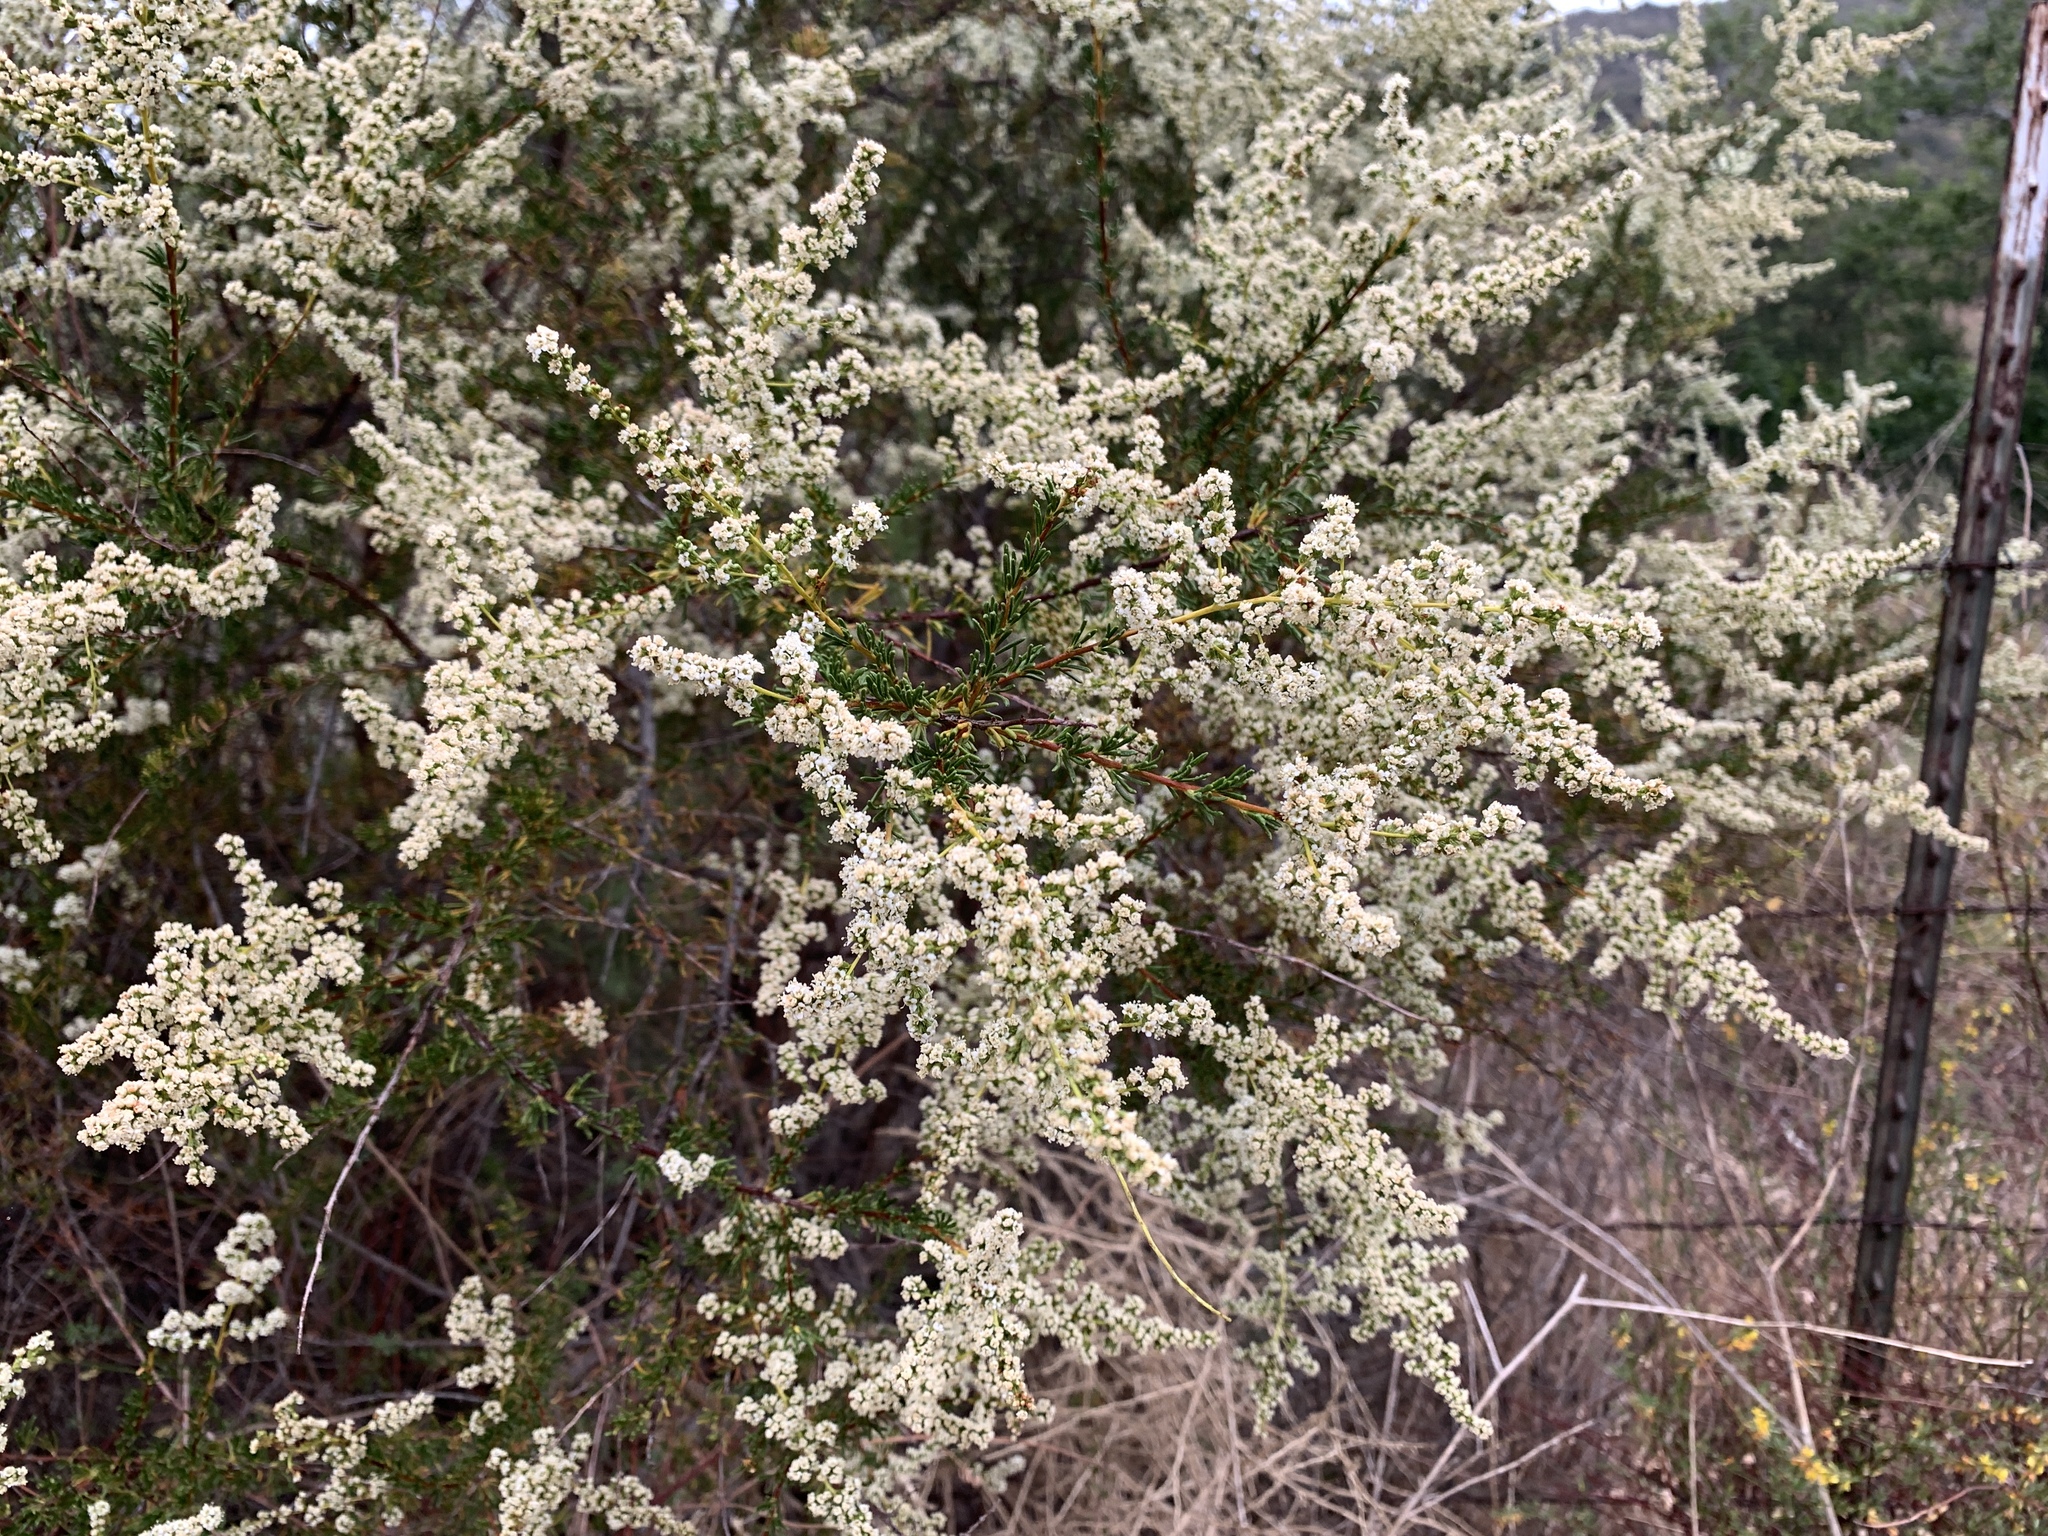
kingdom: Plantae
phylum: Tracheophyta
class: Magnoliopsida
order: Rosales
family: Rosaceae
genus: Adenostoma
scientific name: Adenostoma fasciculatum
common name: Chamise
